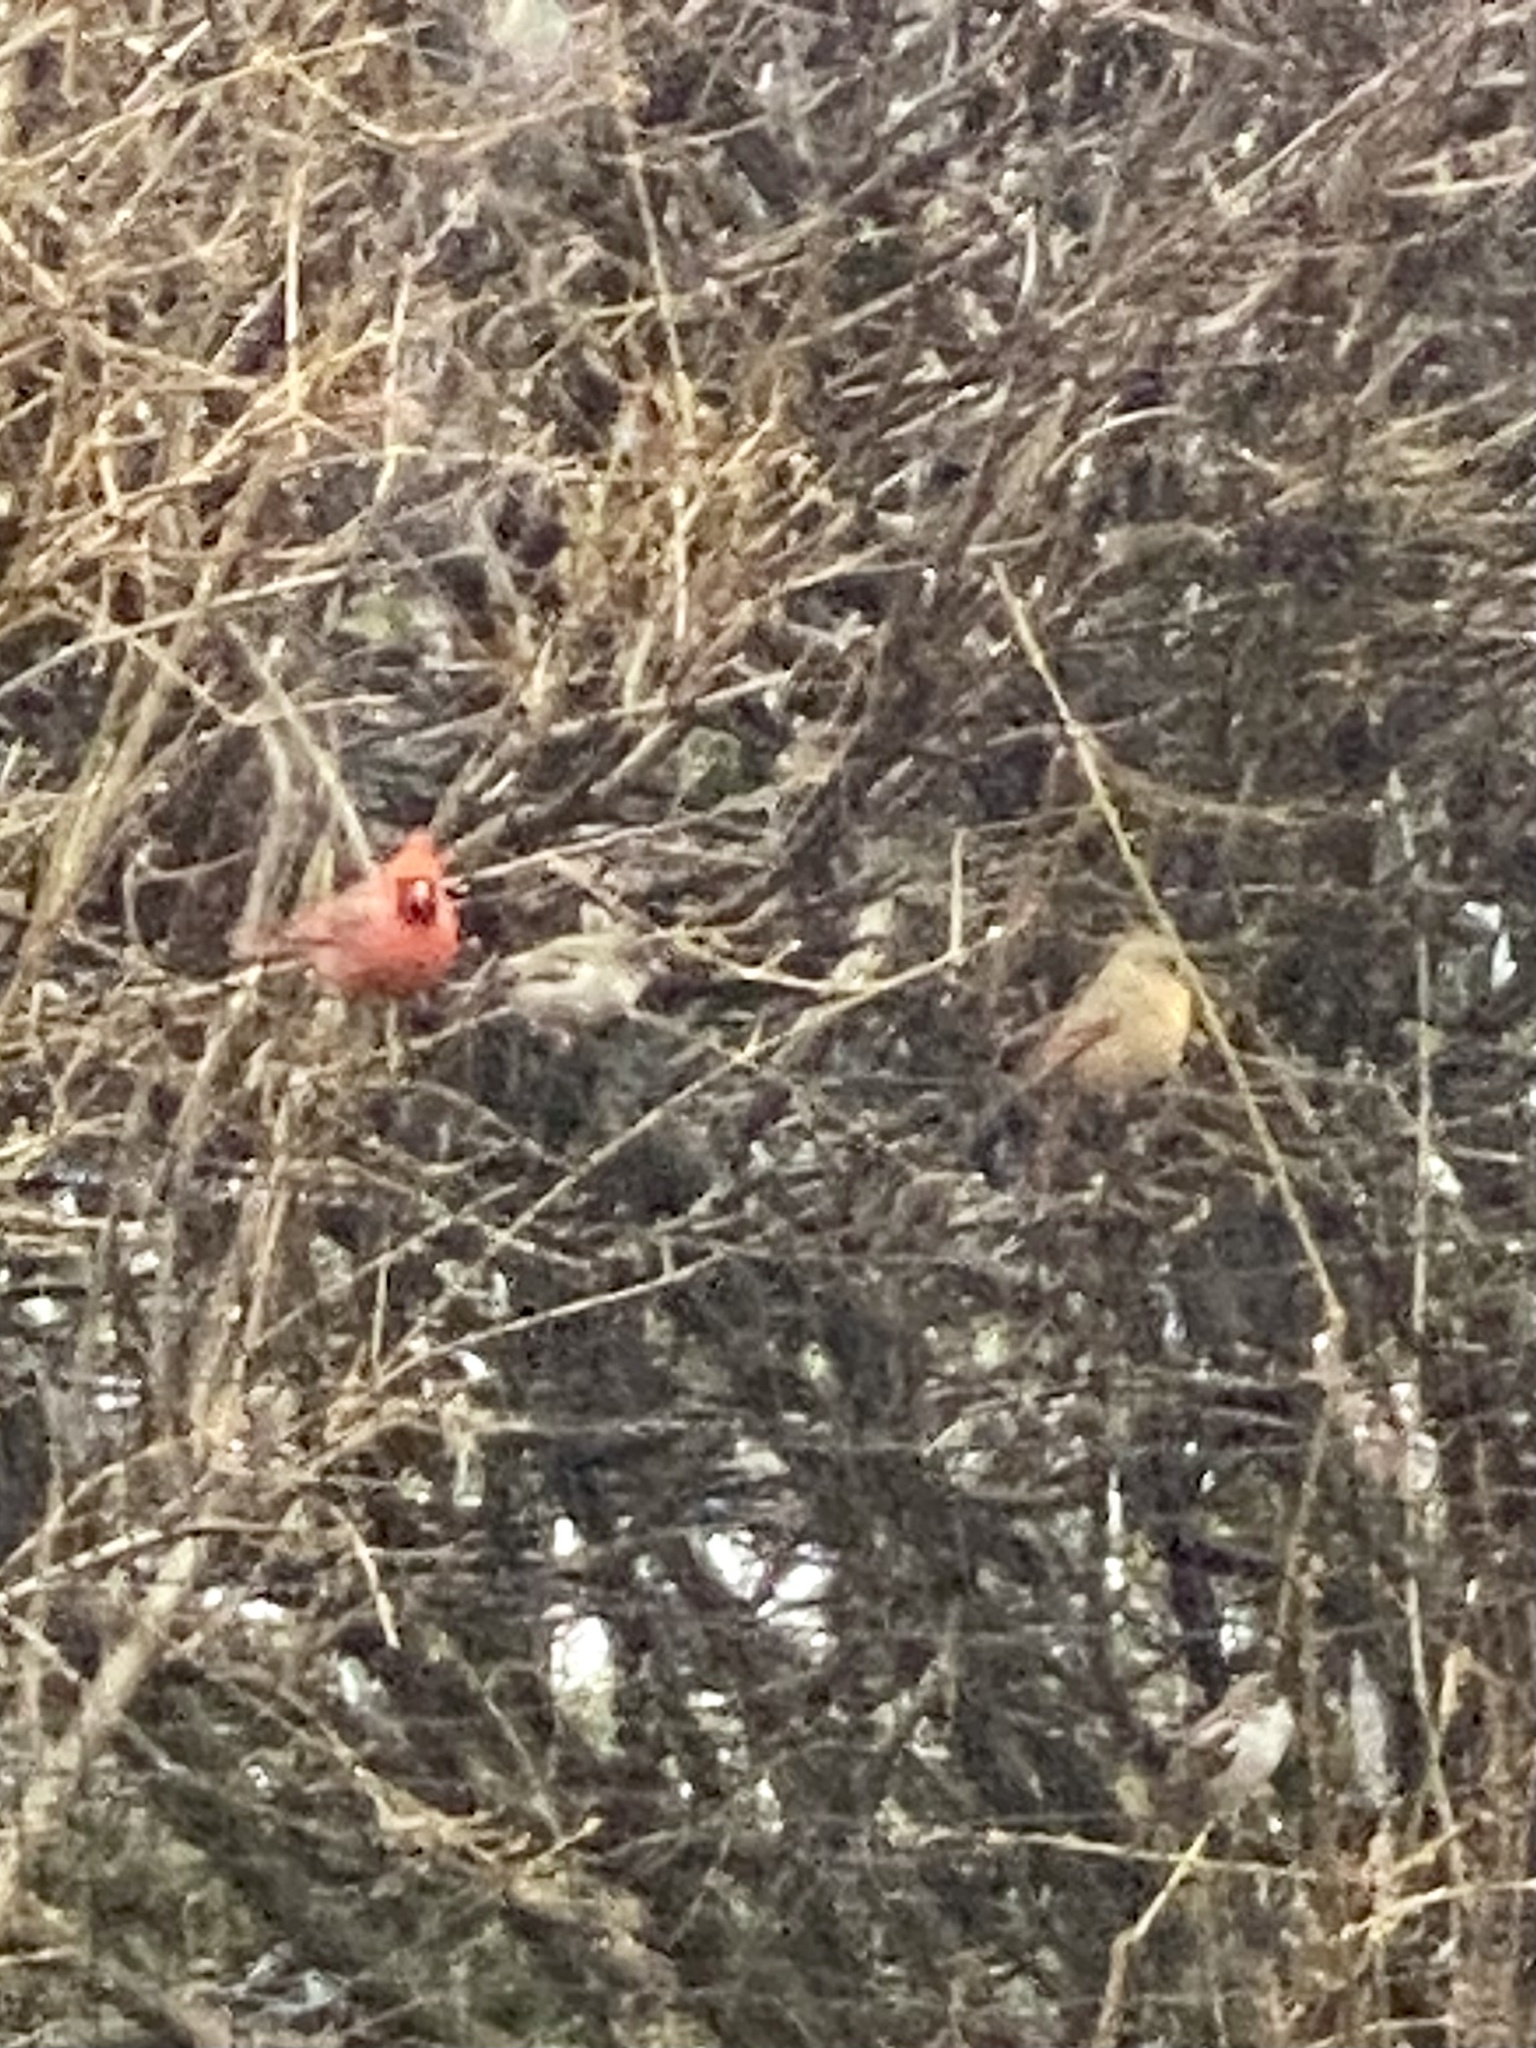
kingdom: Animalia
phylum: Chordata
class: Aves
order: Passeriformes
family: Cardinalidae
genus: Cardinalis
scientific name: Cardinalis cardinalis
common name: Northern cardinal
